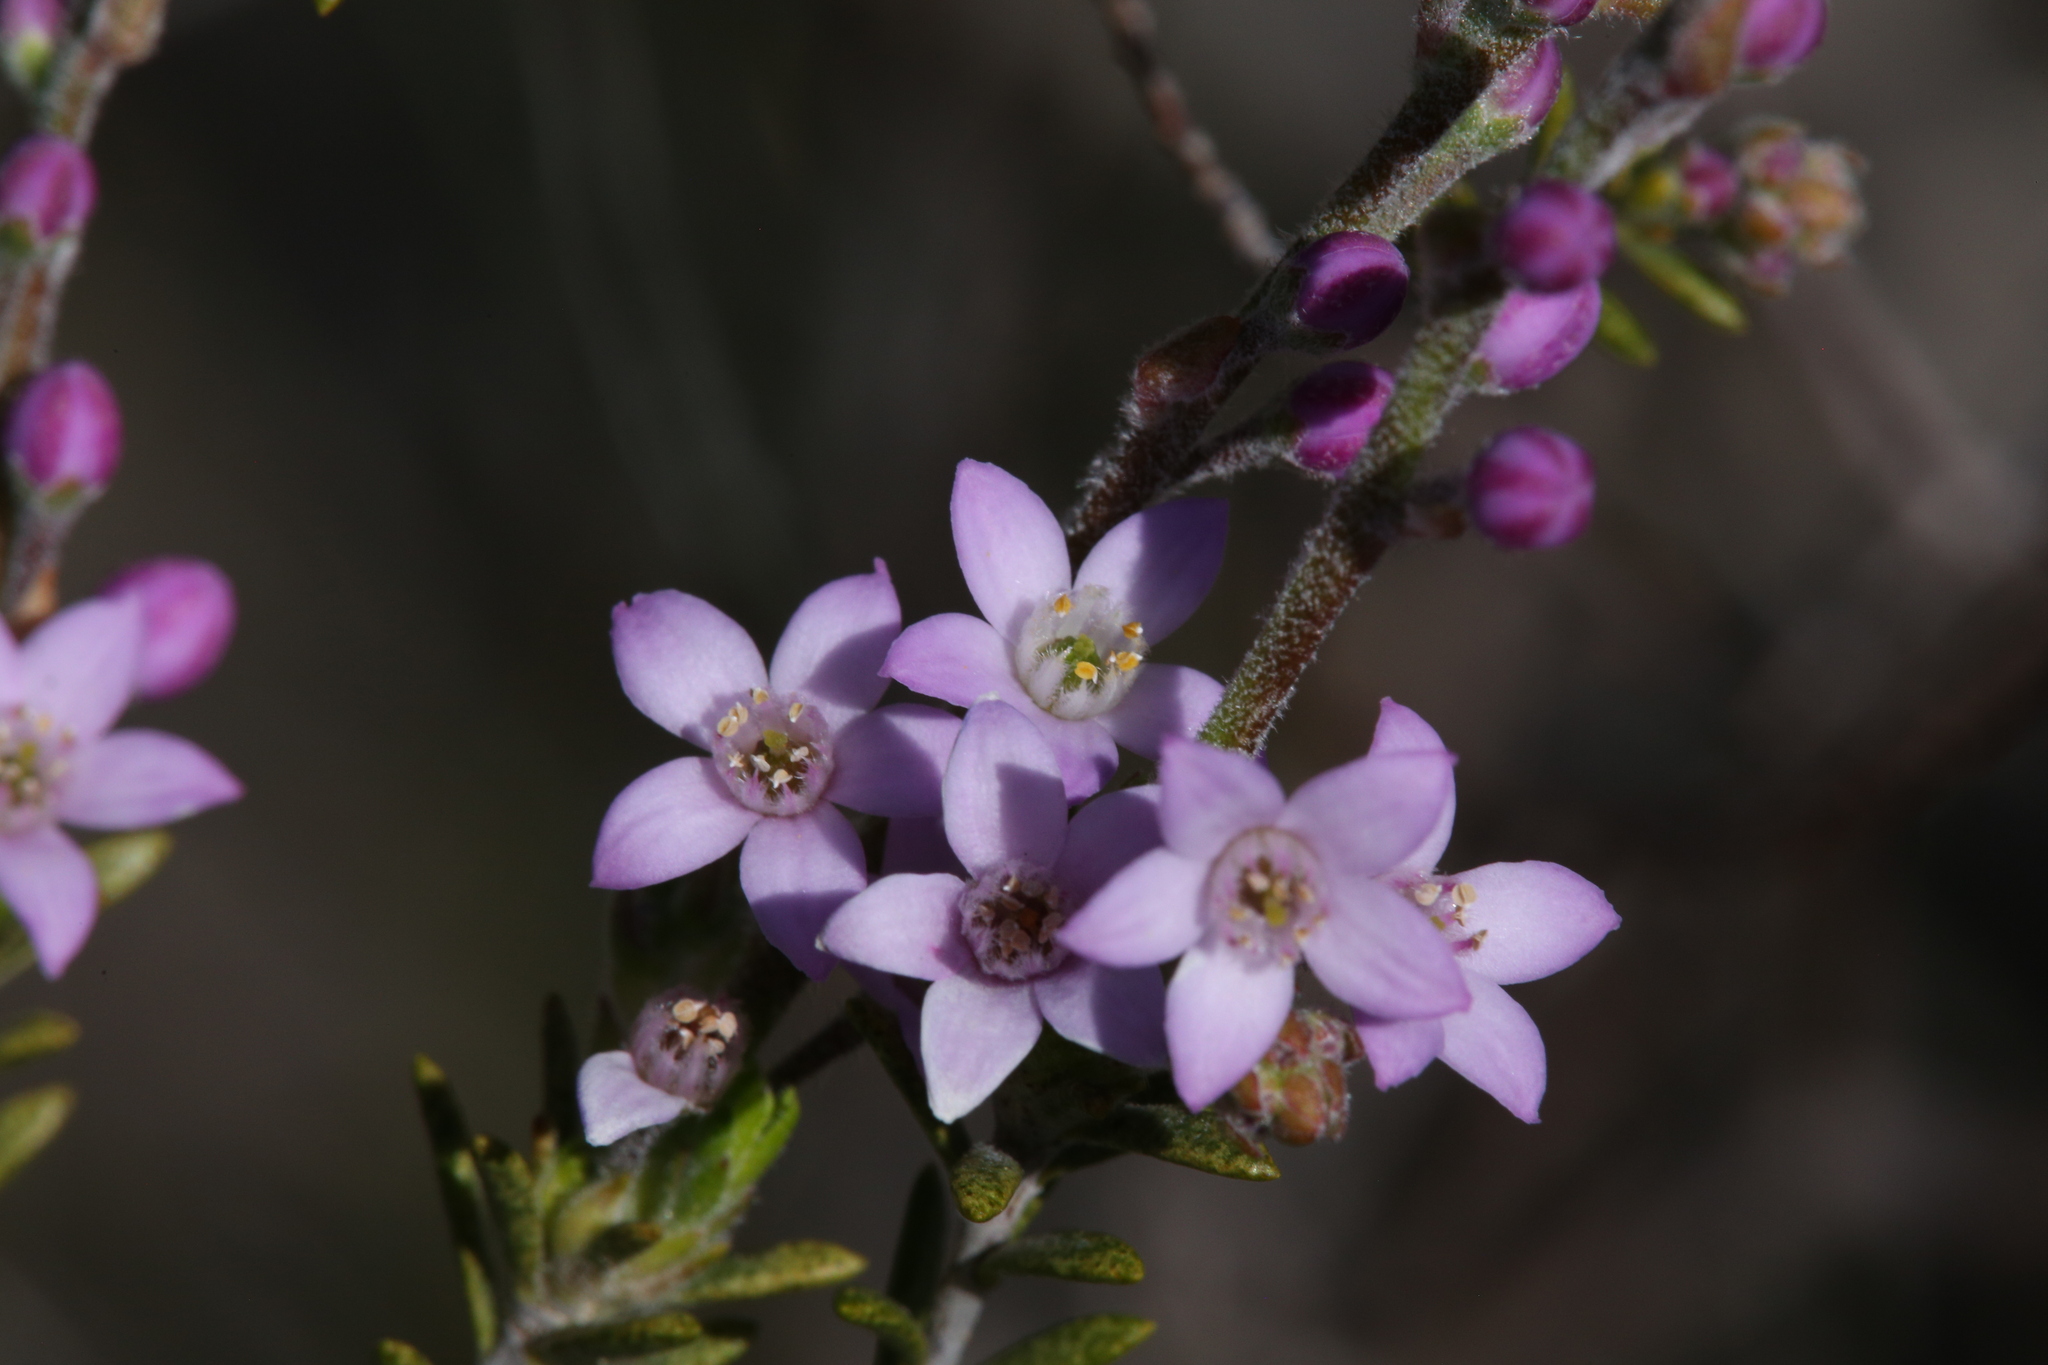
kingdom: Plantae
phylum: Tracheophyta
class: Magnoliopsida
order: Sapindales
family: Rutaceae
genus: Philotheca
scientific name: Philotheca spicata
